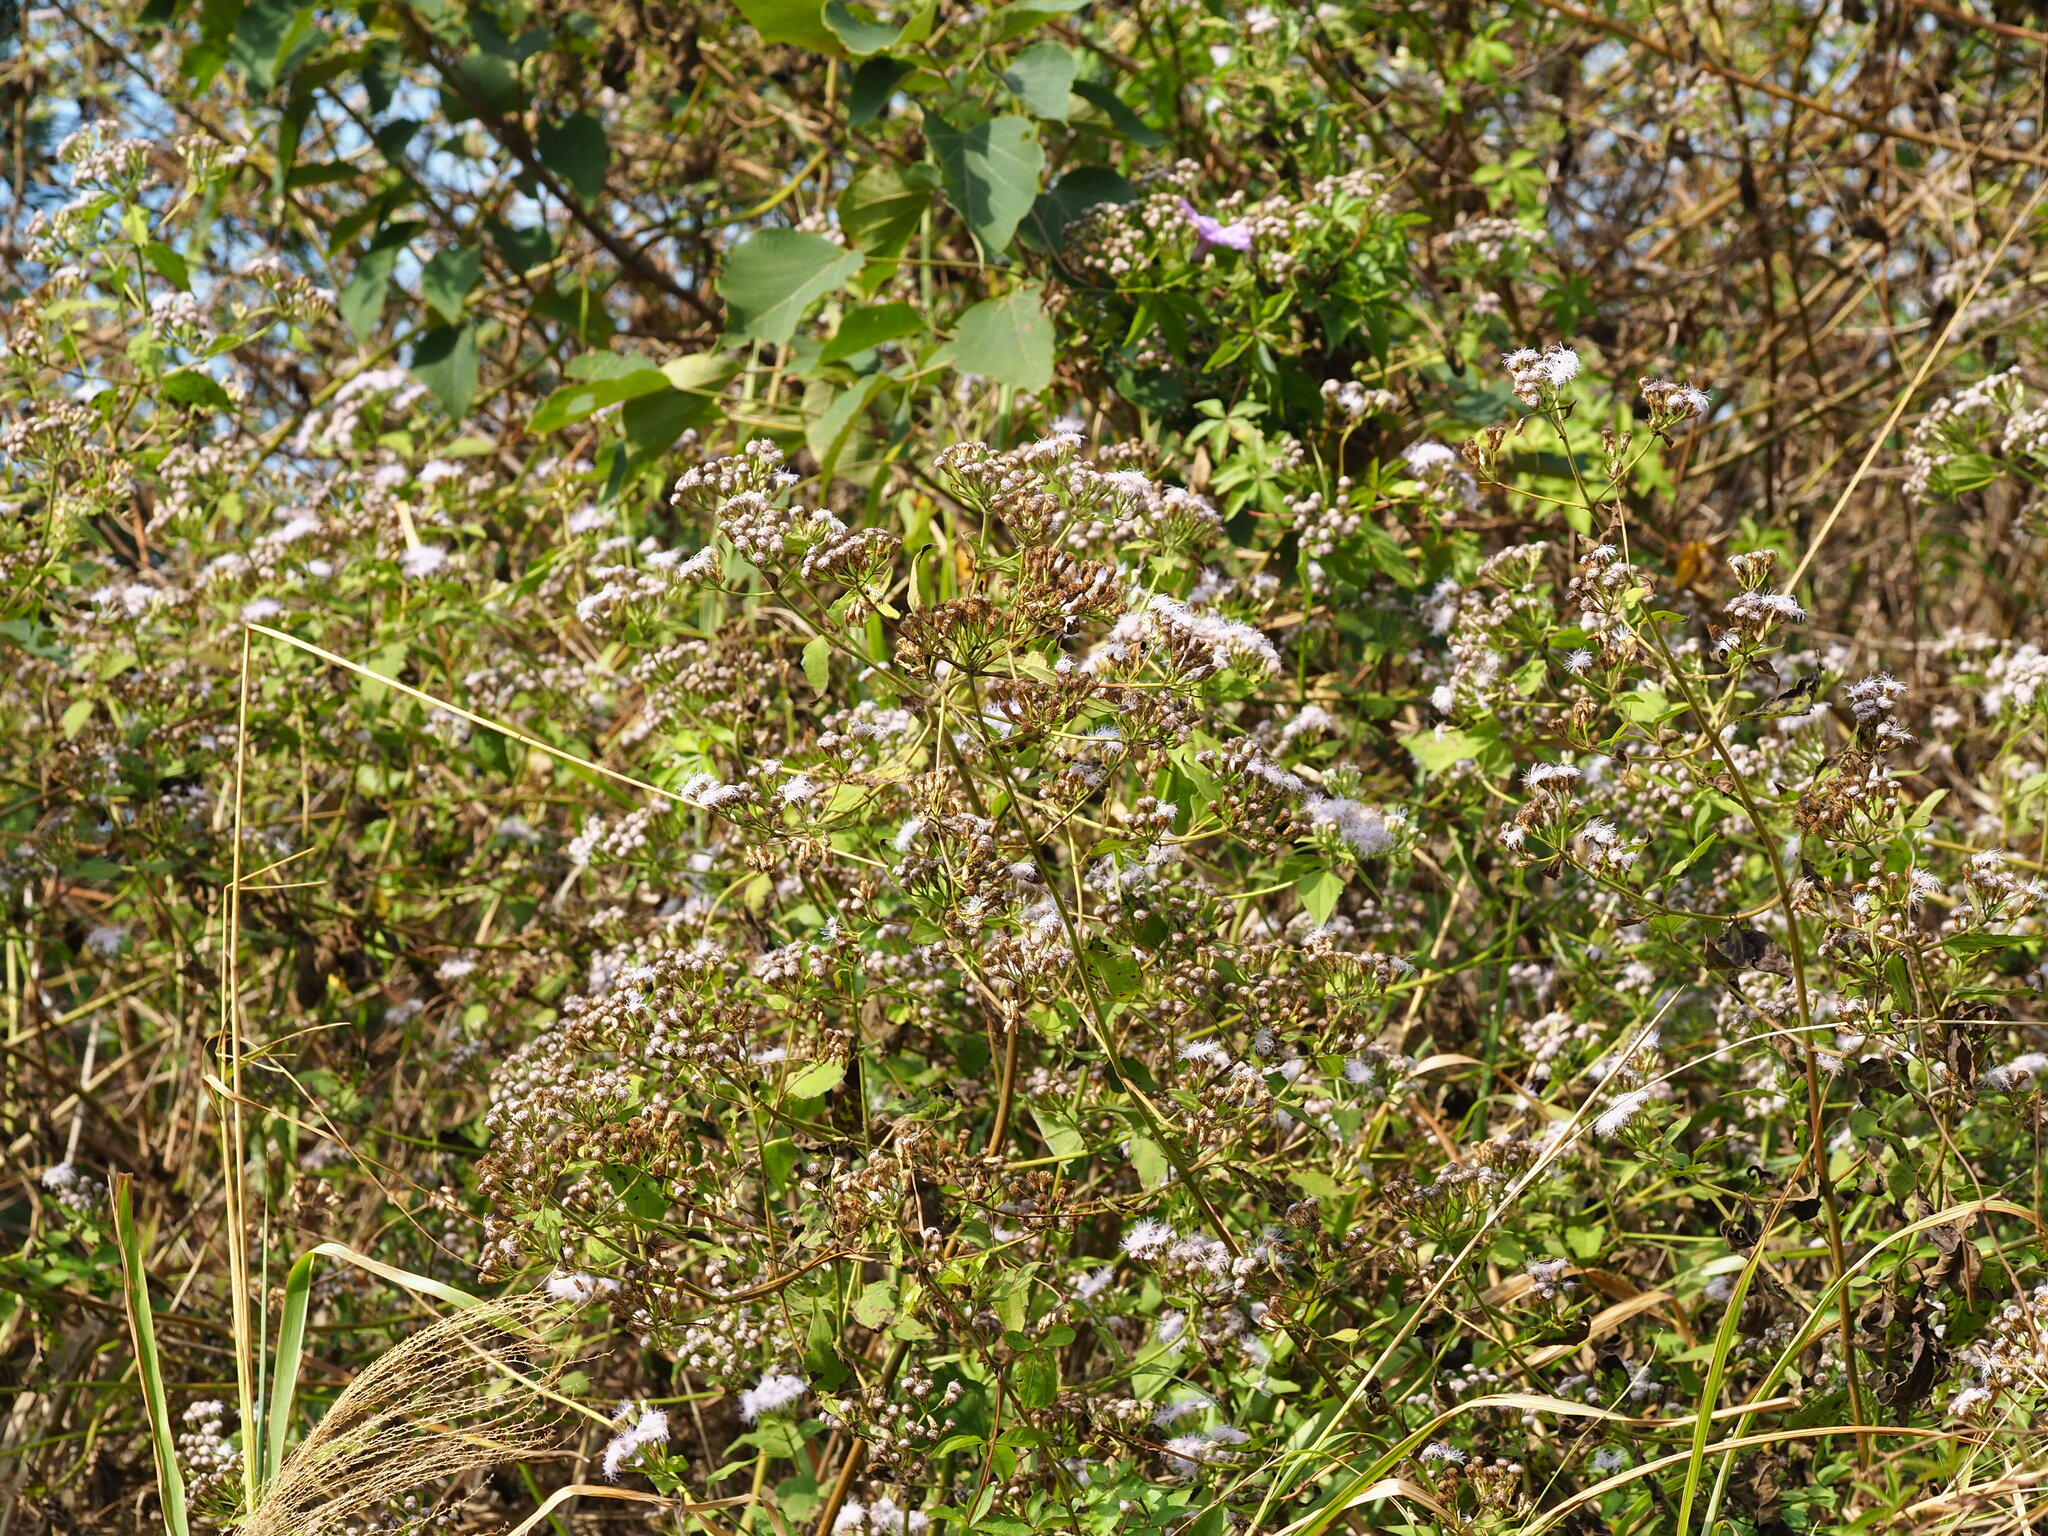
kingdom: Plantae
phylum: Tracheophyta
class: Magnoliopsida
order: Asterales
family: Asteraceae
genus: Chromolaena
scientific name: Chromolaena odorata
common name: Siamweed
